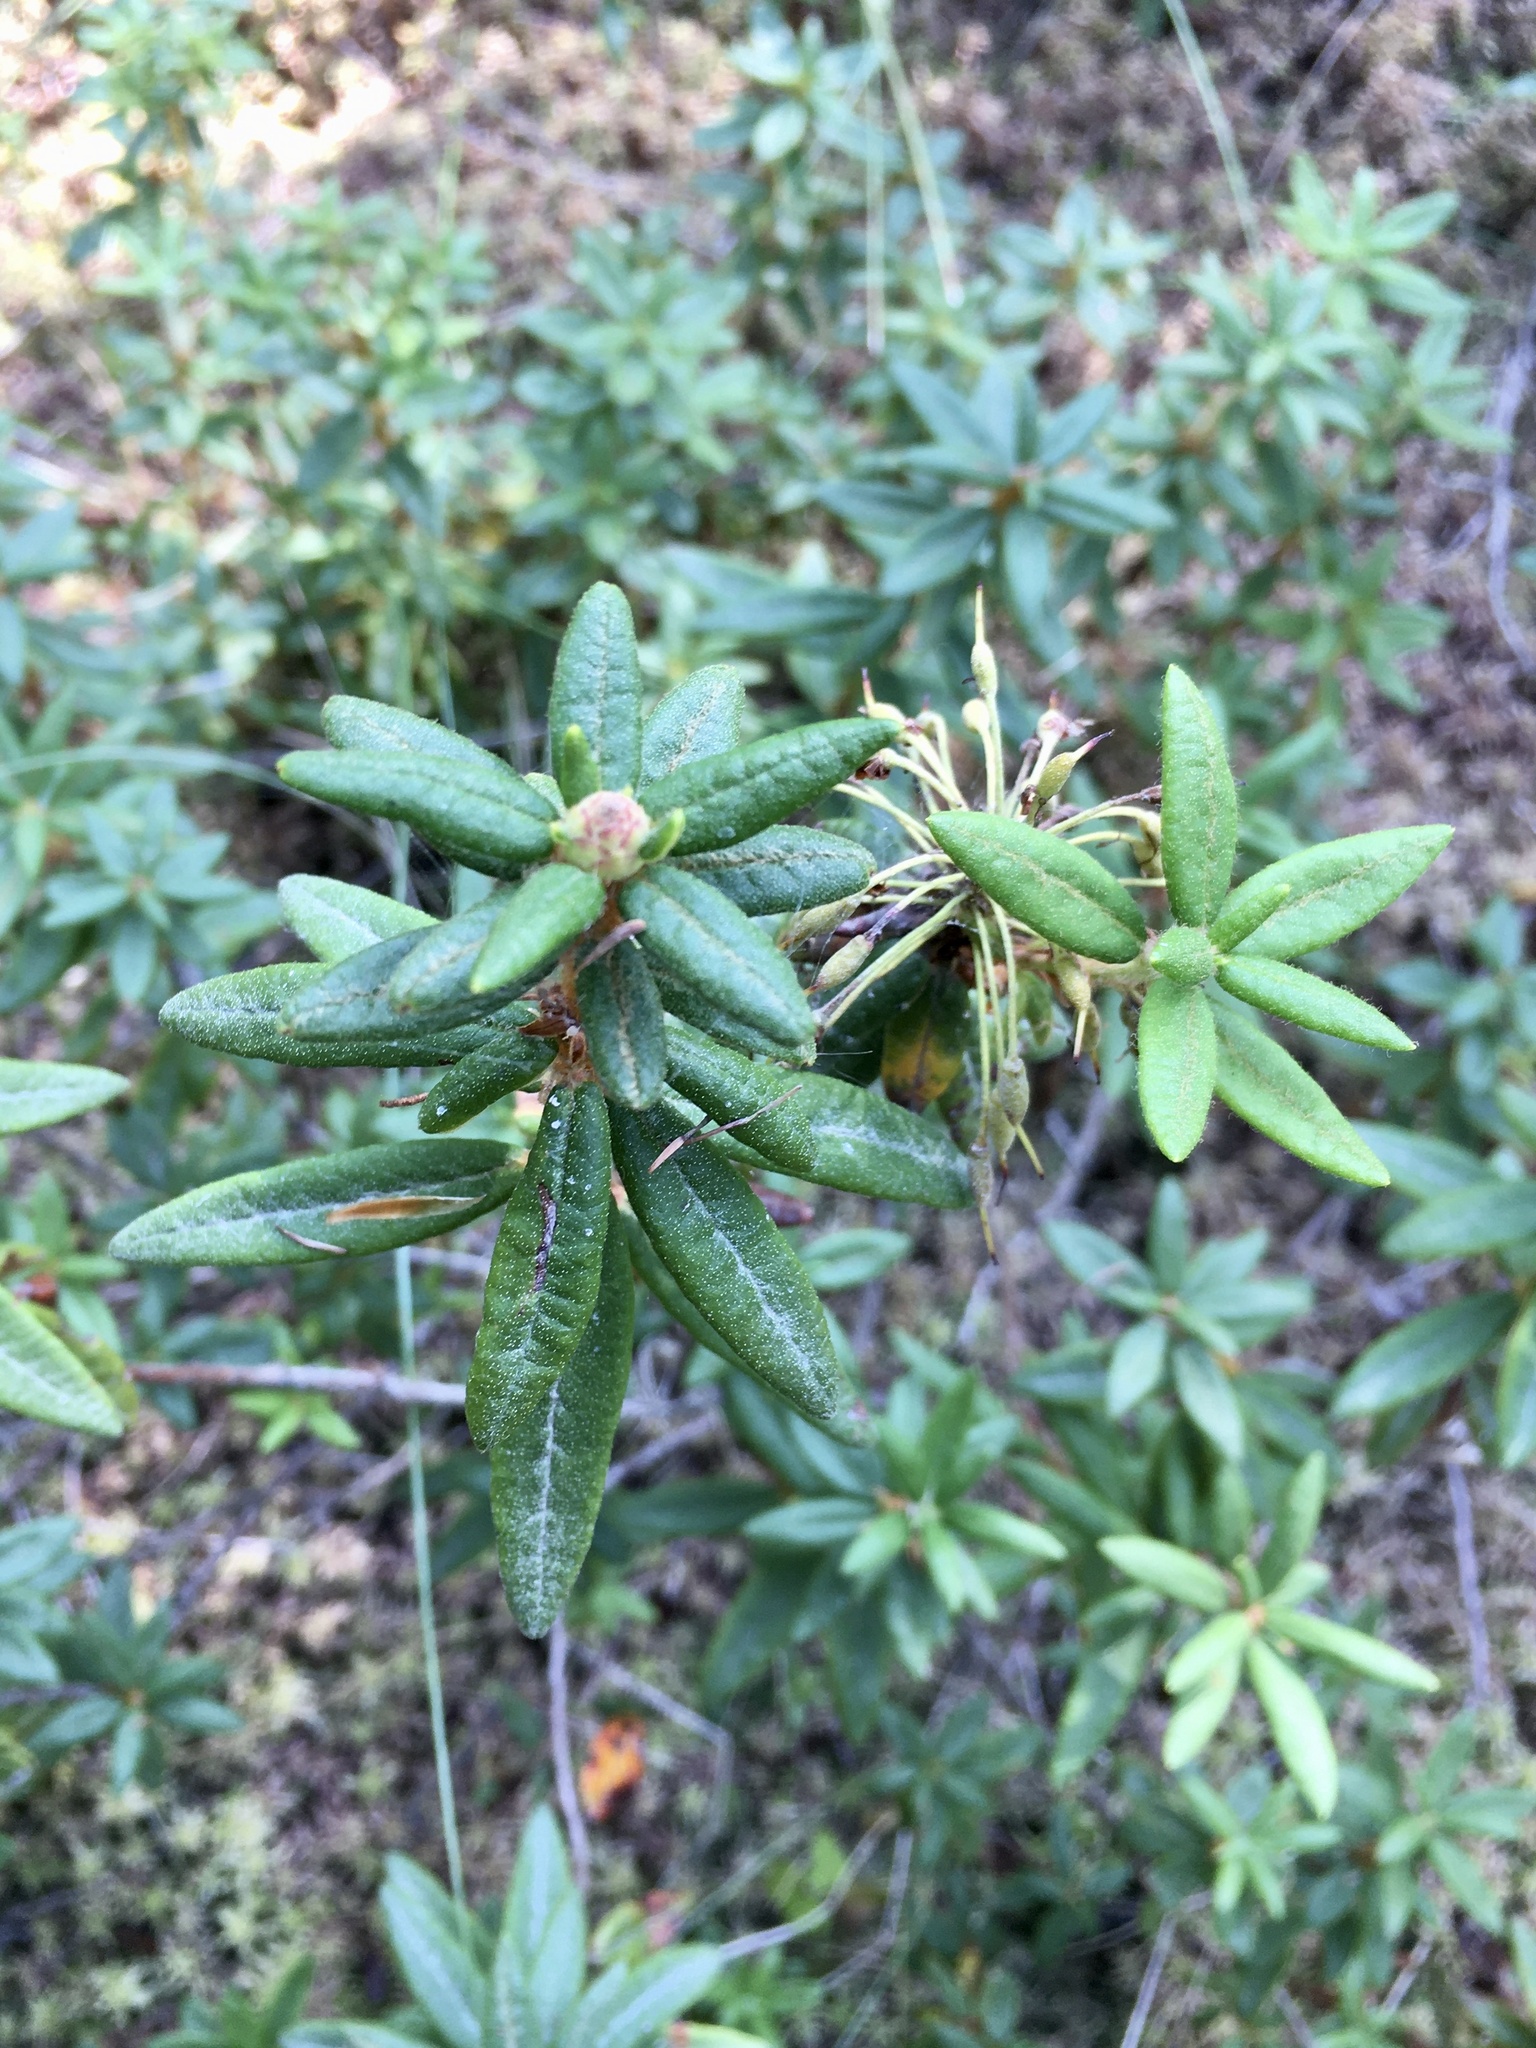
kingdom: Plantae
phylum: Tracheophyta
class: Magnoliopsida
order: Ericales
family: Ericaceae
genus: Rhododendron
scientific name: Rhododendron groenlandicum
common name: Bog labrador tea
